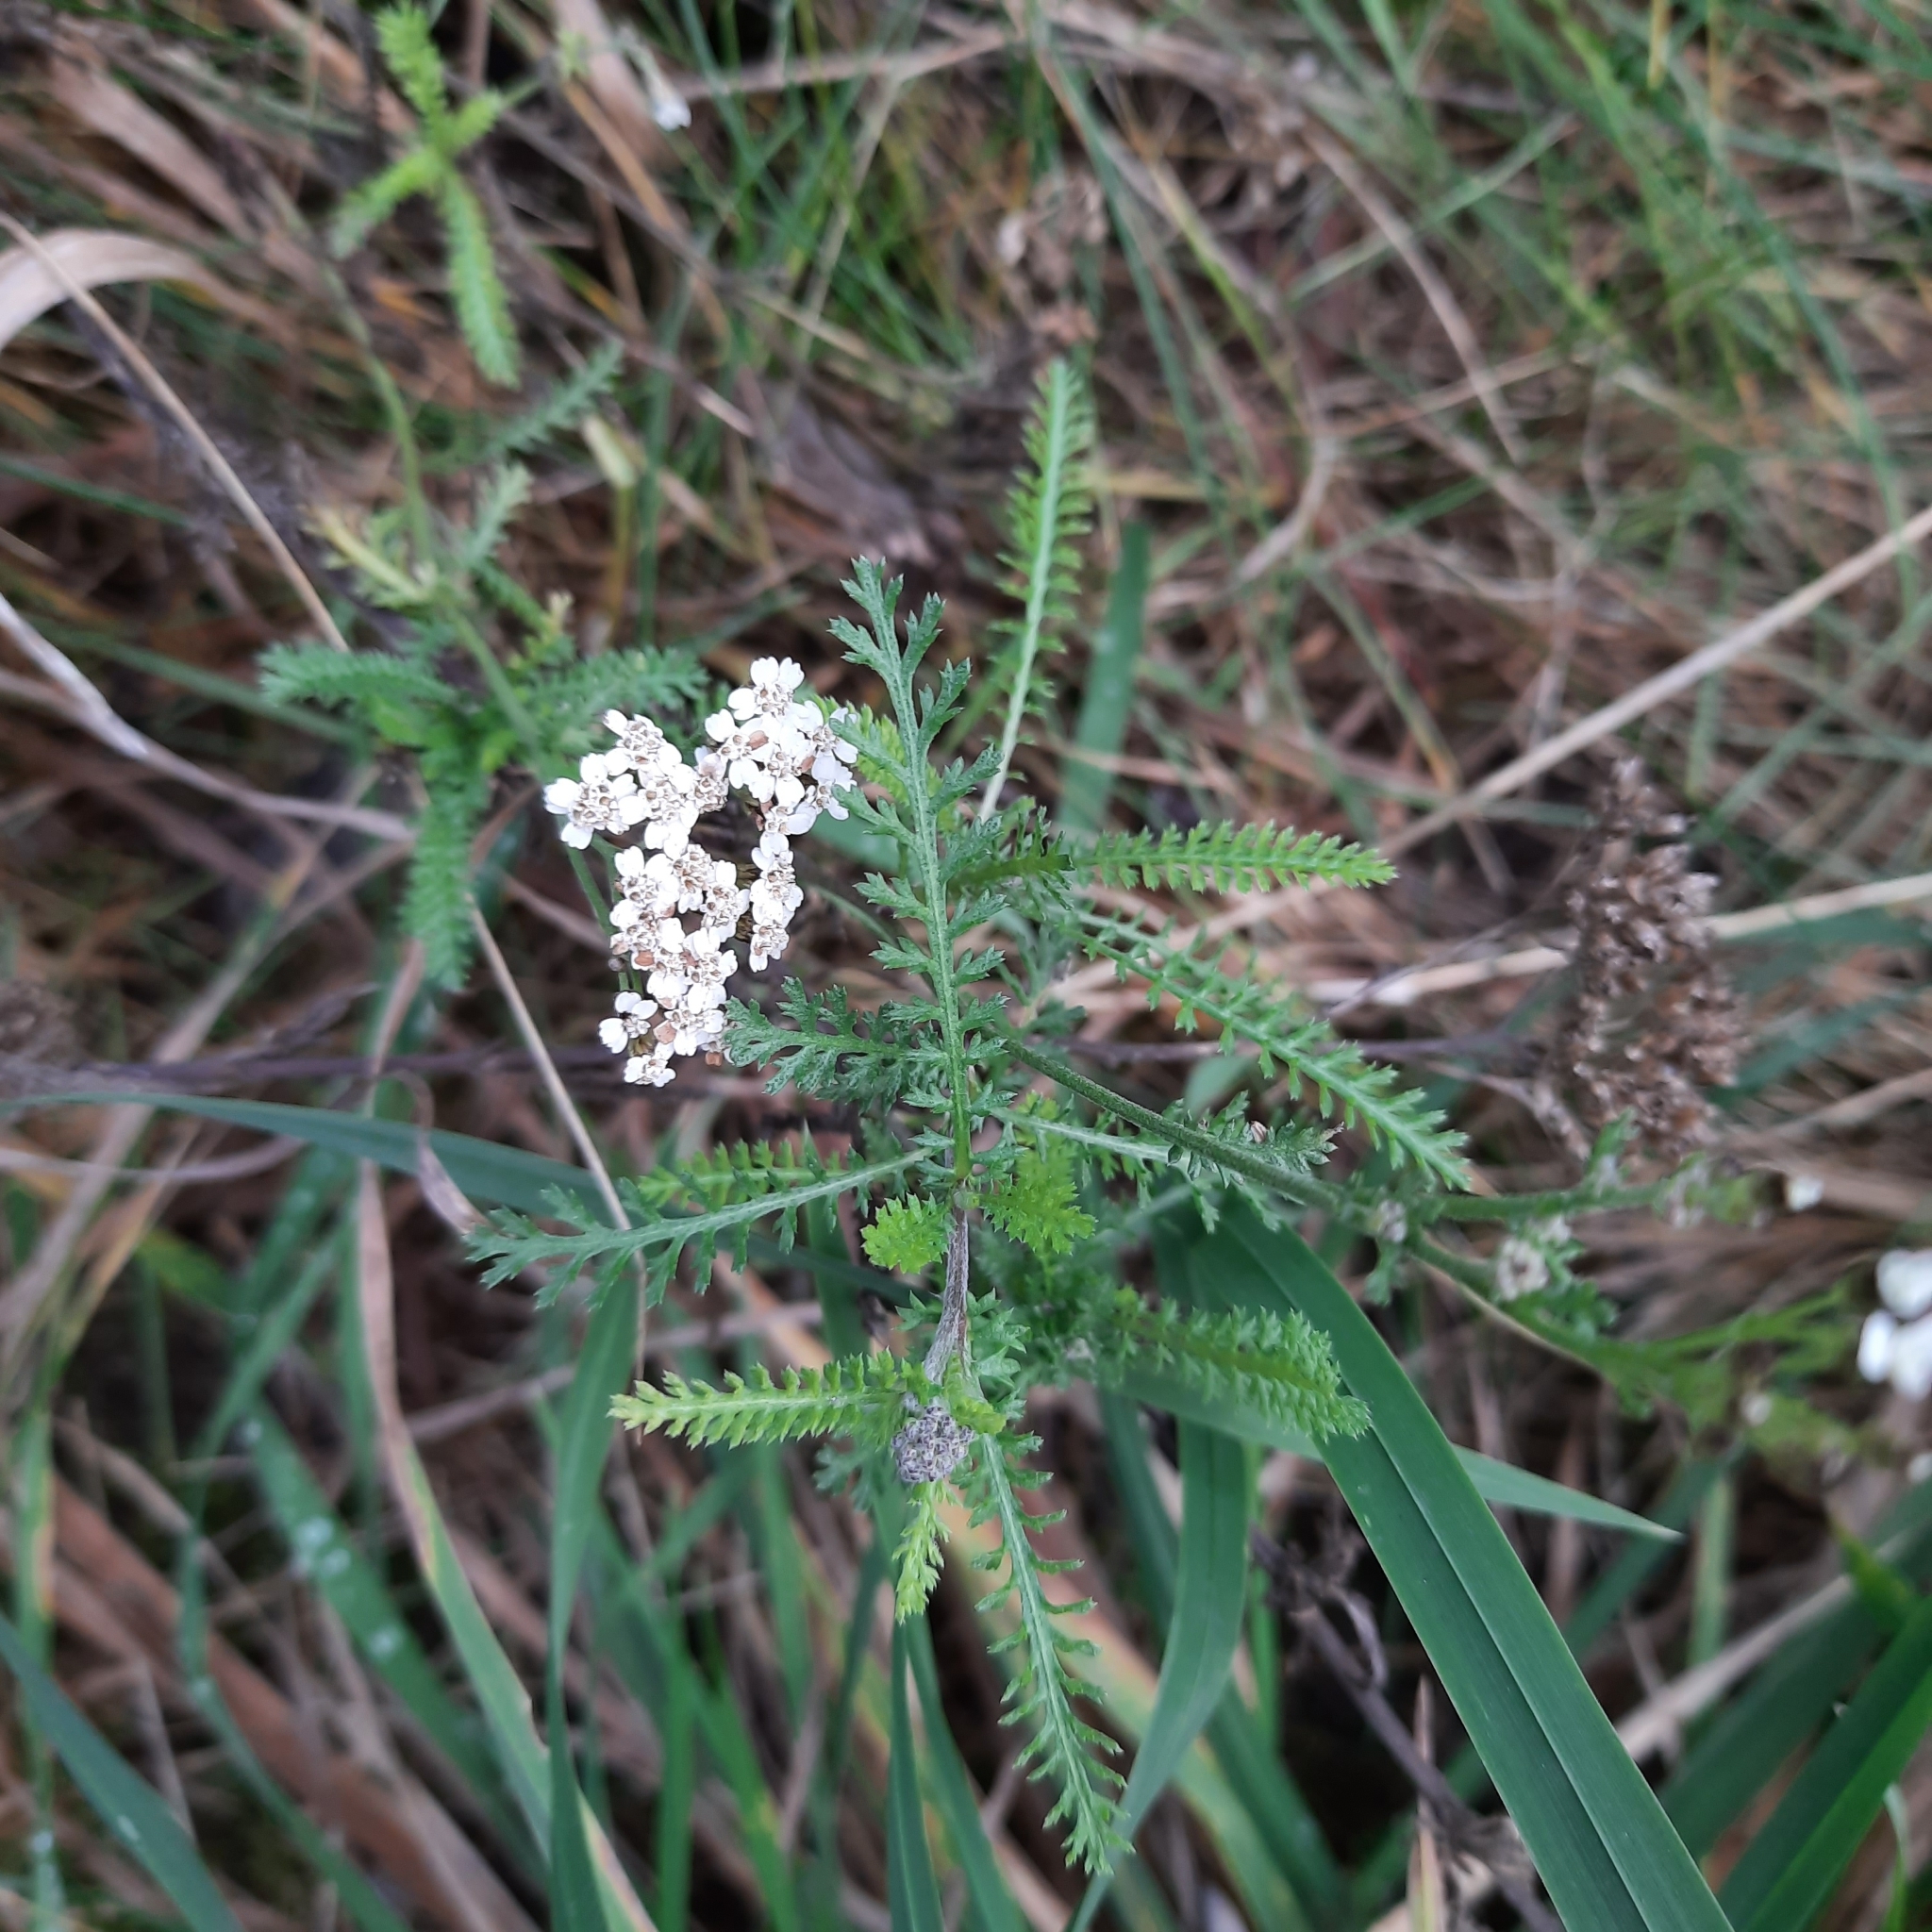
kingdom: Plantae
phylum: Tracheophyta
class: Magnoliopsida
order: Asterales
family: Asteraceae
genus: Achillea
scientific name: Achillea millefolium
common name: Yarrow
